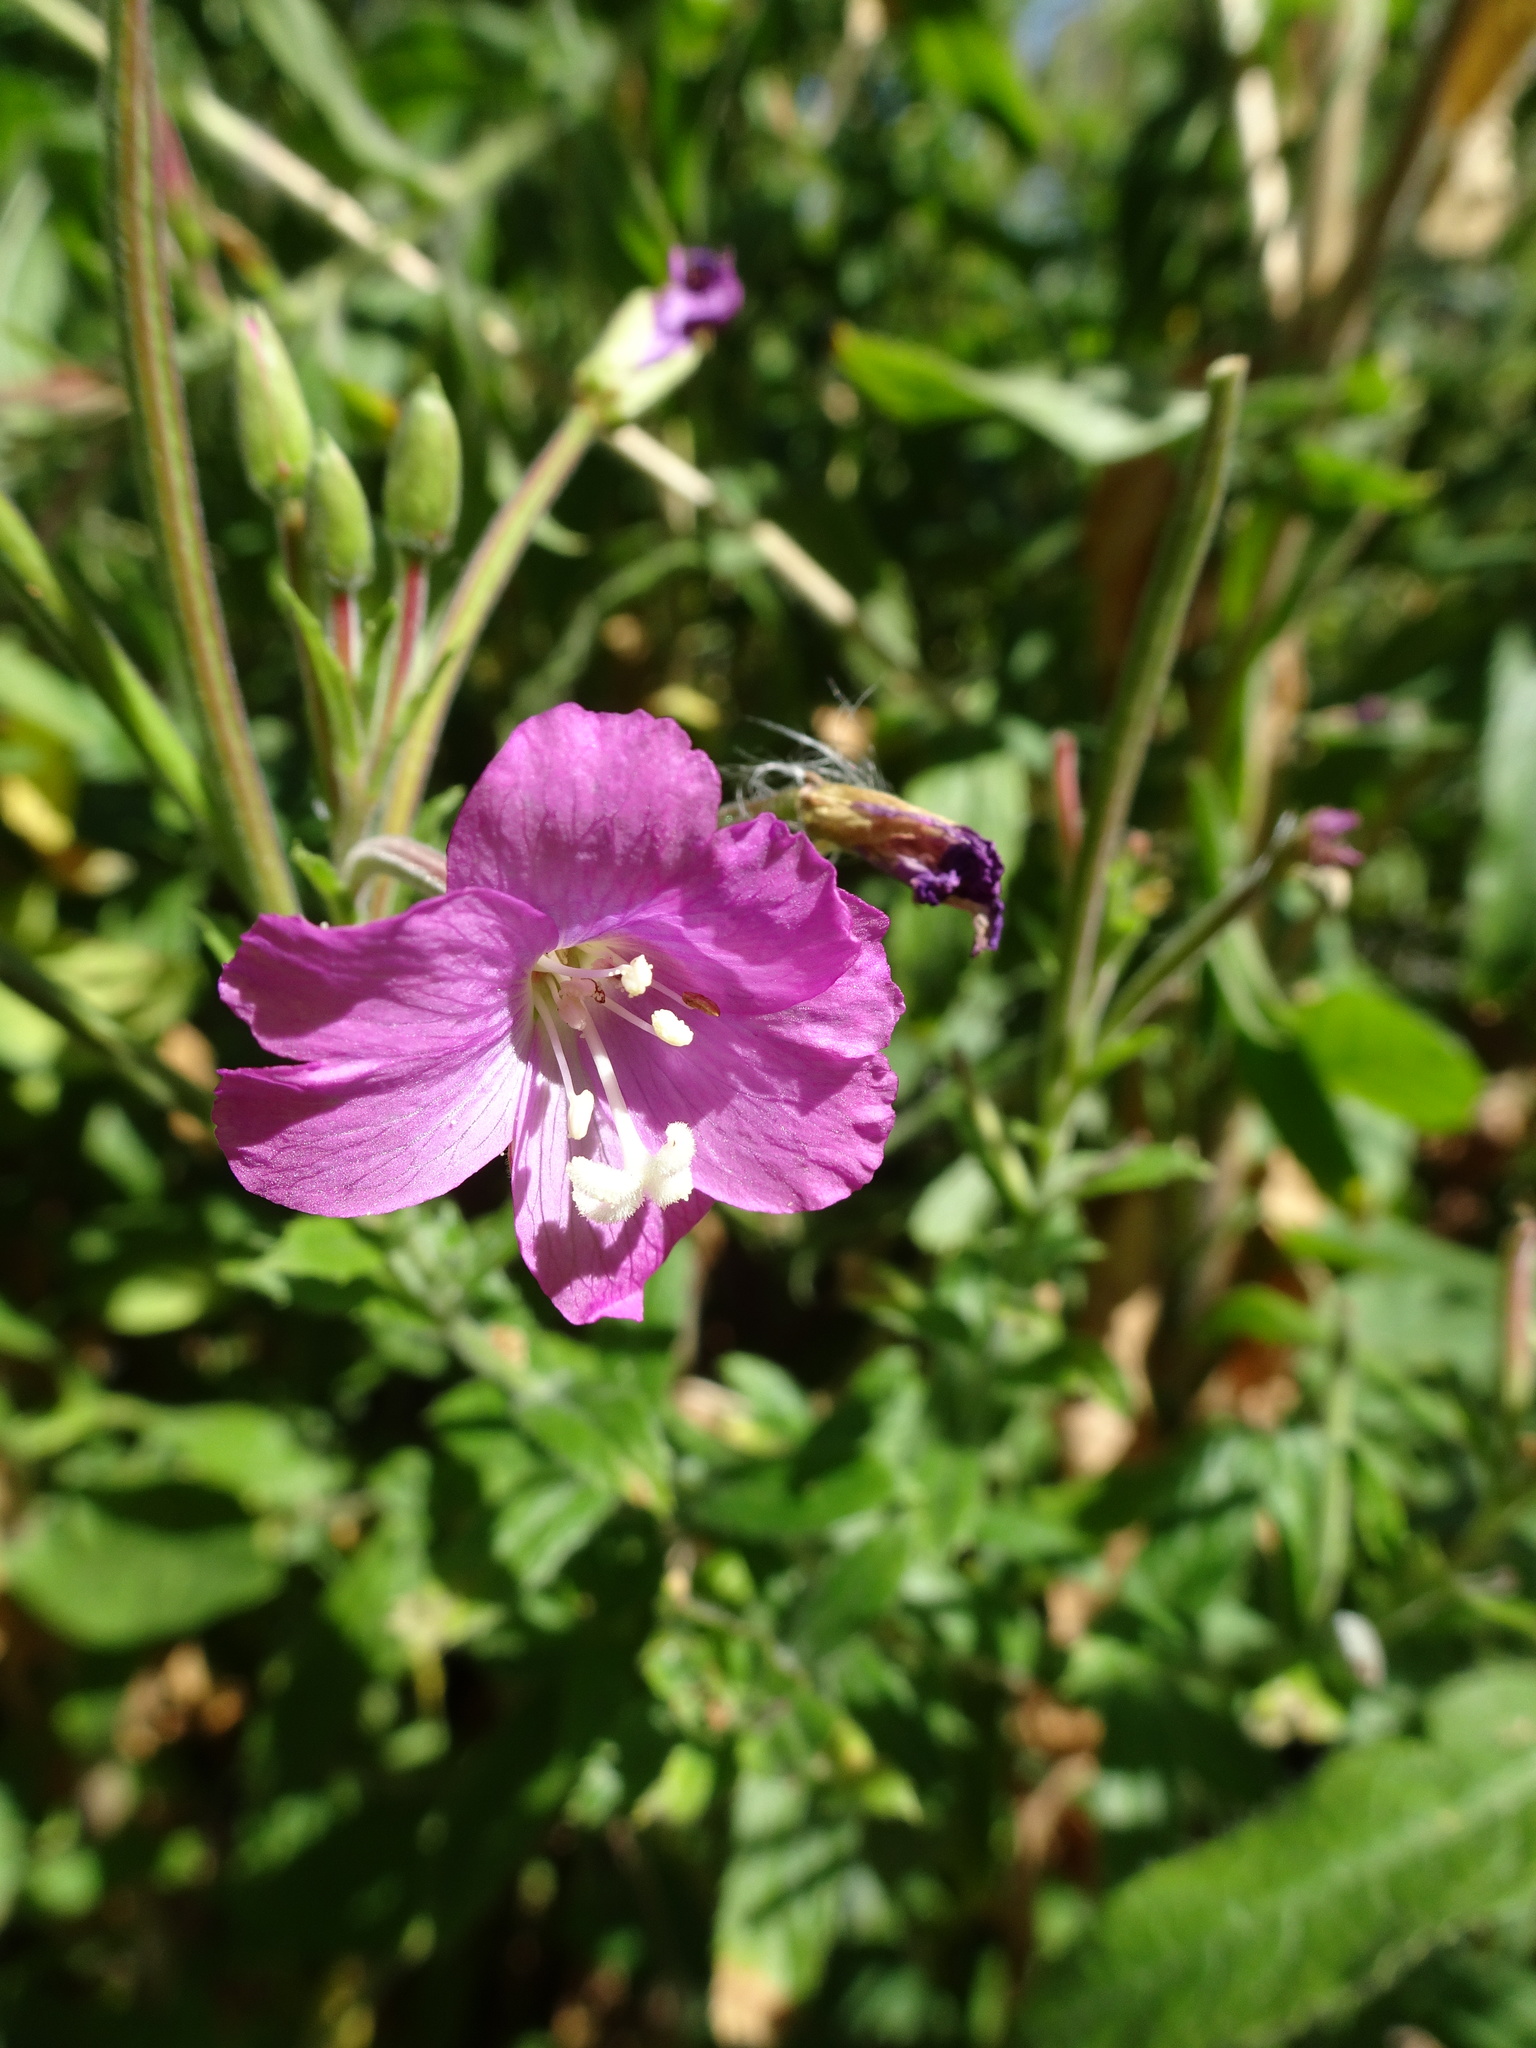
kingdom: Plantae
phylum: Tracheophyta
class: Magnoliopsida
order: Myrtales
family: Onagraceae
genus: Epilobium
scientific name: Epilobium hirsutum
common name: Great willowherb
